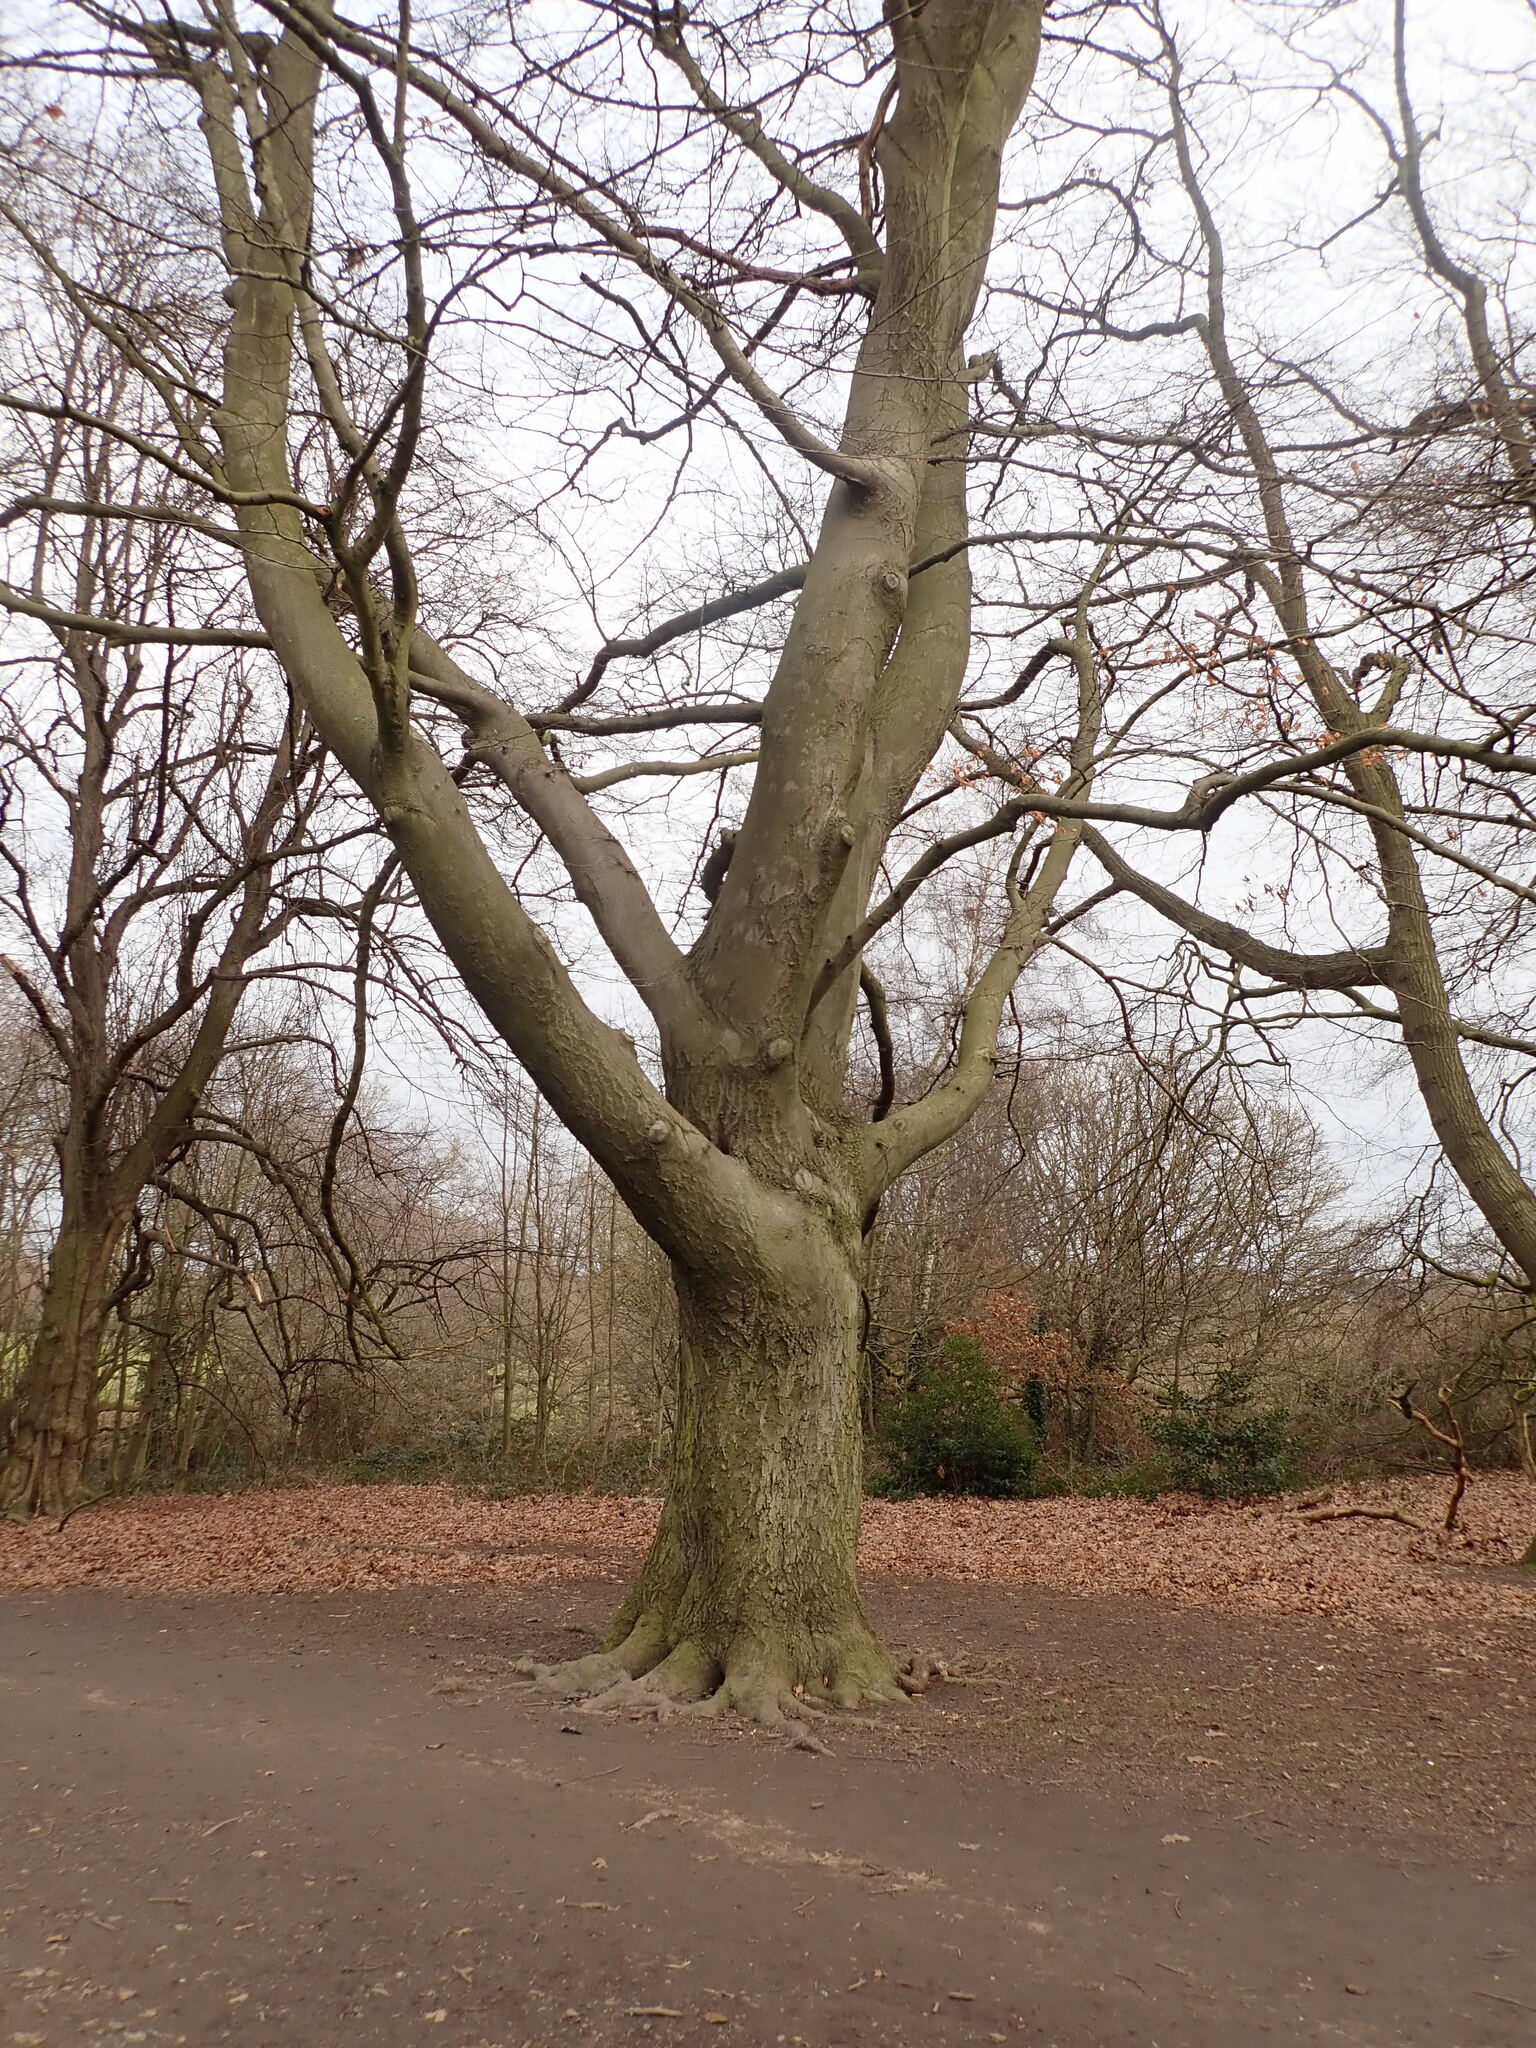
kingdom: Plantae
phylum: Tracheophyta
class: Magnoliopsida
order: Fagales
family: Fagaceae
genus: Fagus
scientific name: Fagus sylvatica
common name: Beech
